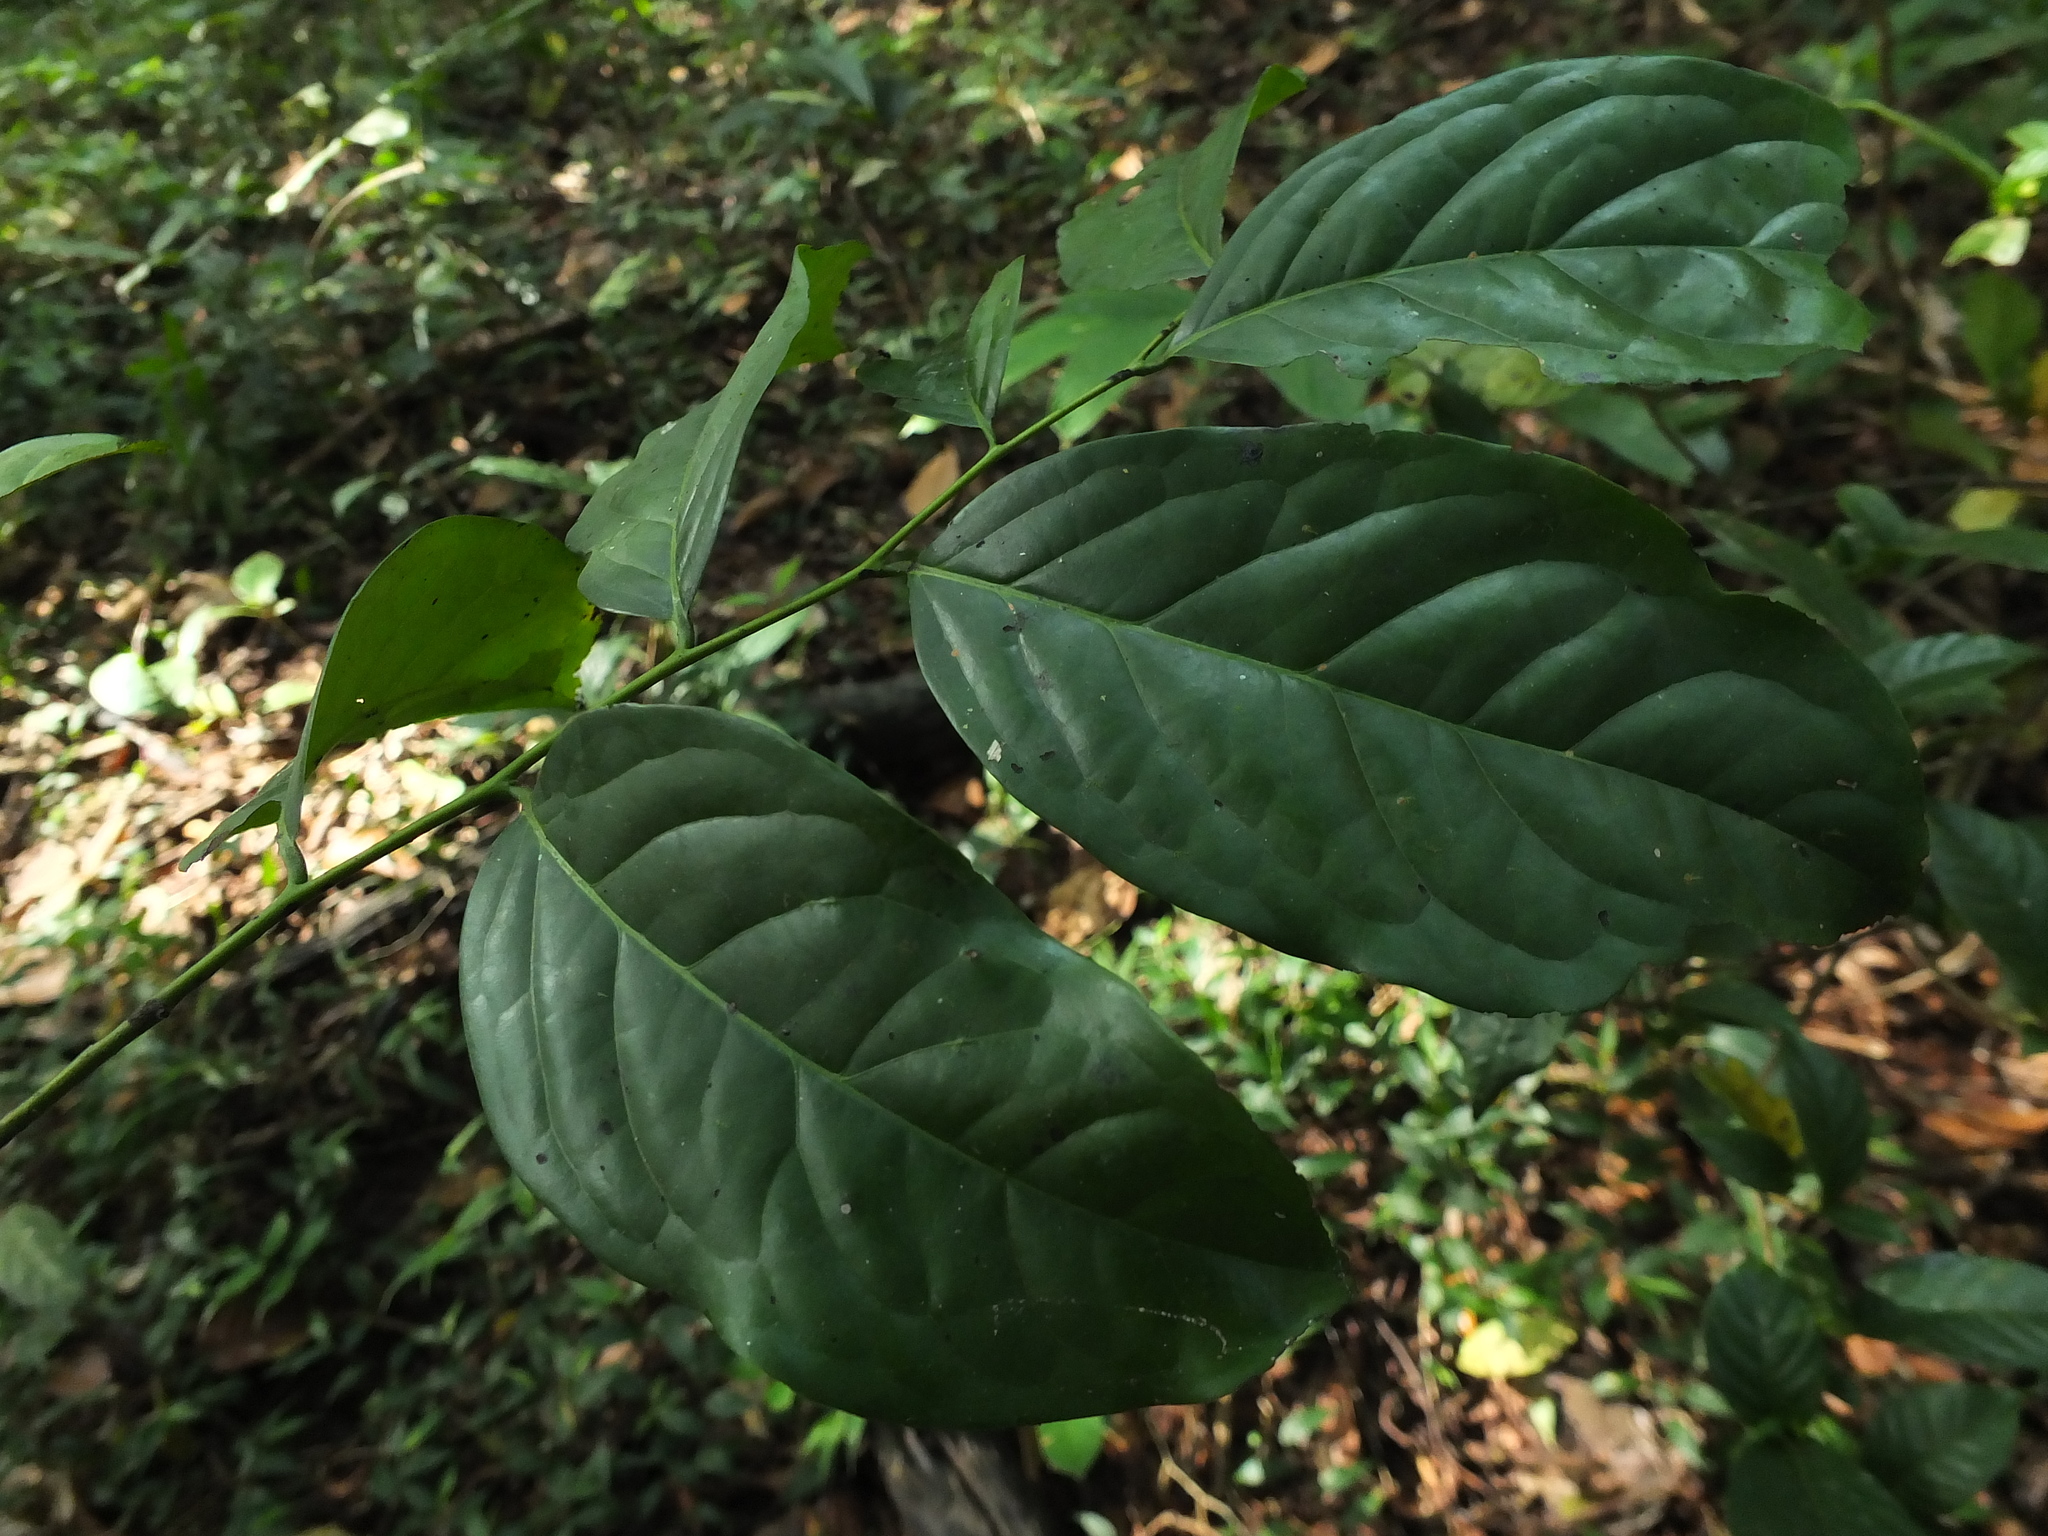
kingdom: Plantae
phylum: Tracheophyta
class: Magnoliopsida
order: Ericales
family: Ebenaceae
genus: Diospyros
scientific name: Diospyros sylvatica
